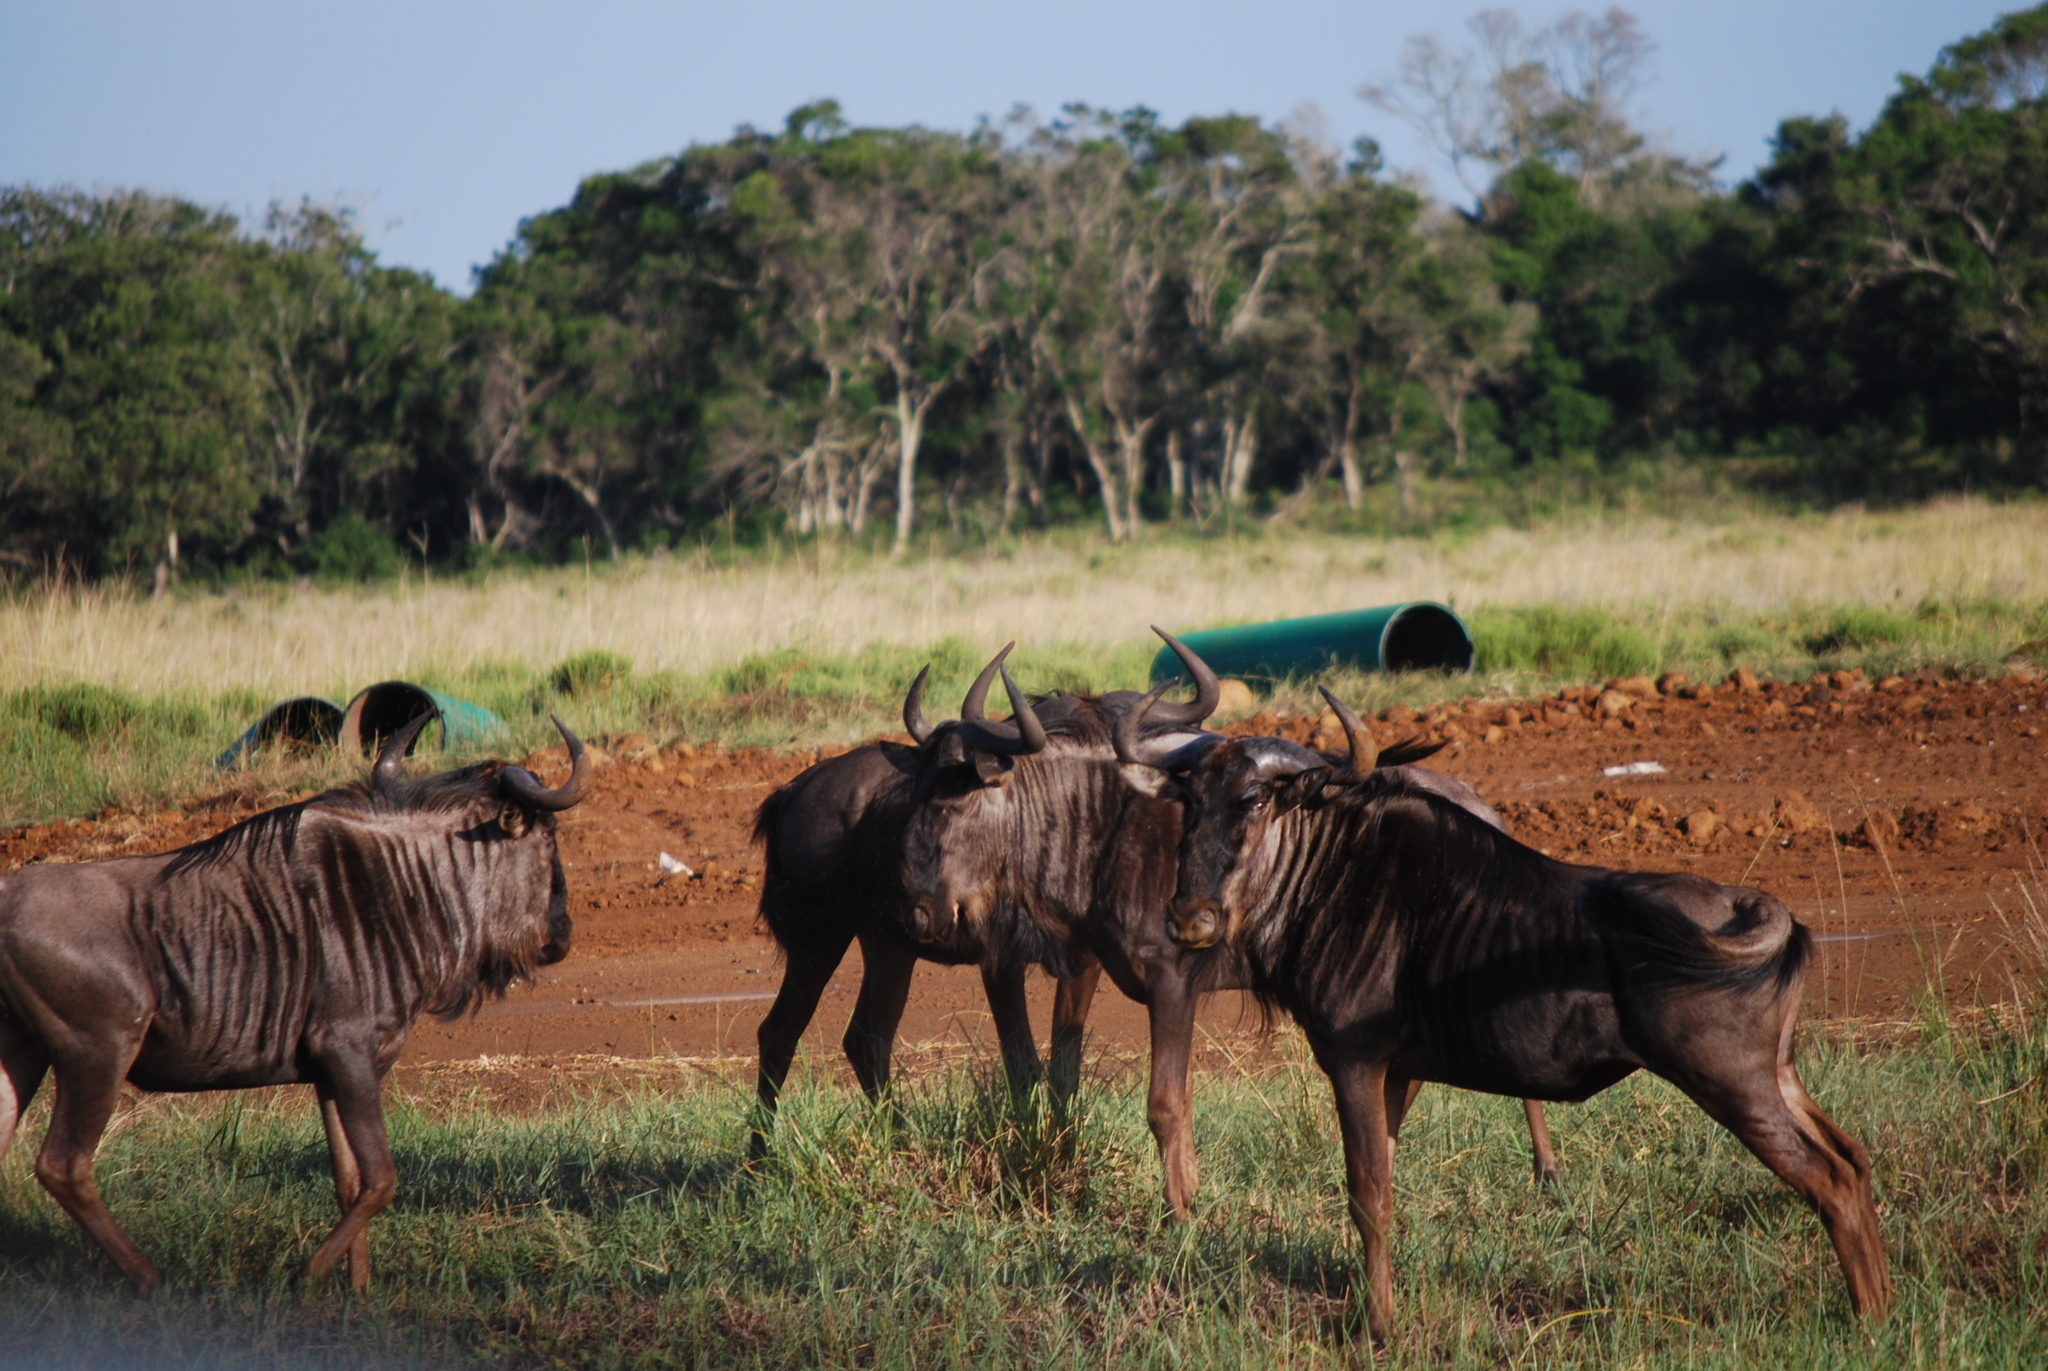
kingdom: Animalia
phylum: Chordata
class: Mammalia
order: Artiodactyla
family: Bovidae
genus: Connochaetes
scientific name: Connochaetes taurinus
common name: Blue wildebeest
